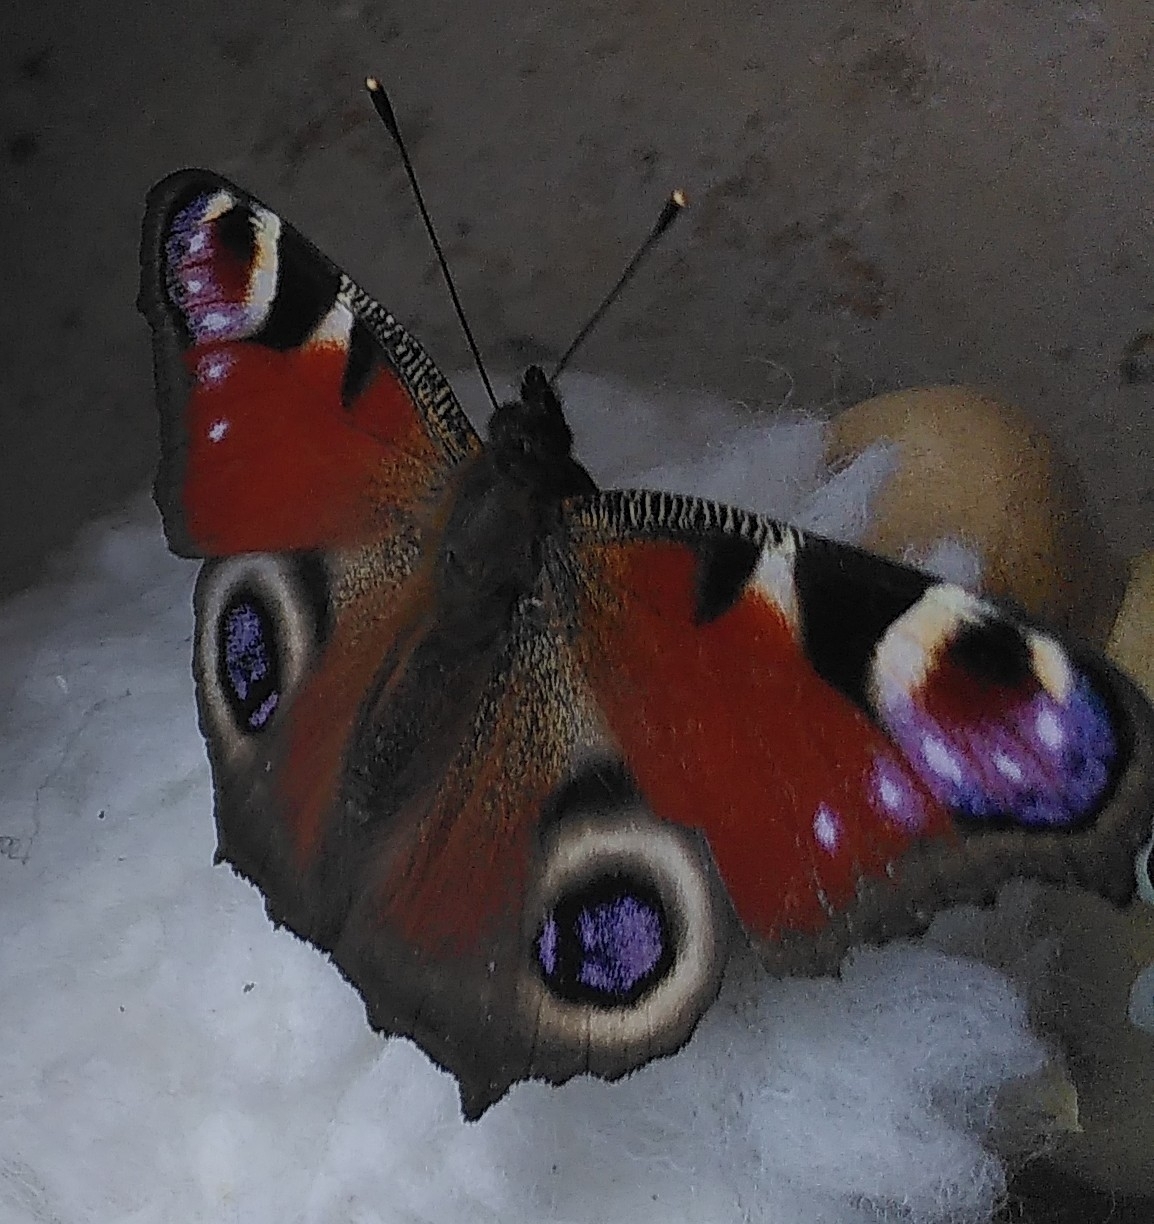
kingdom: Animalia
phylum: Arthropoda
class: Insecta
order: Lepidoptera
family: Nymphalidae
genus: Aglais
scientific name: Aglais io
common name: Peacock
